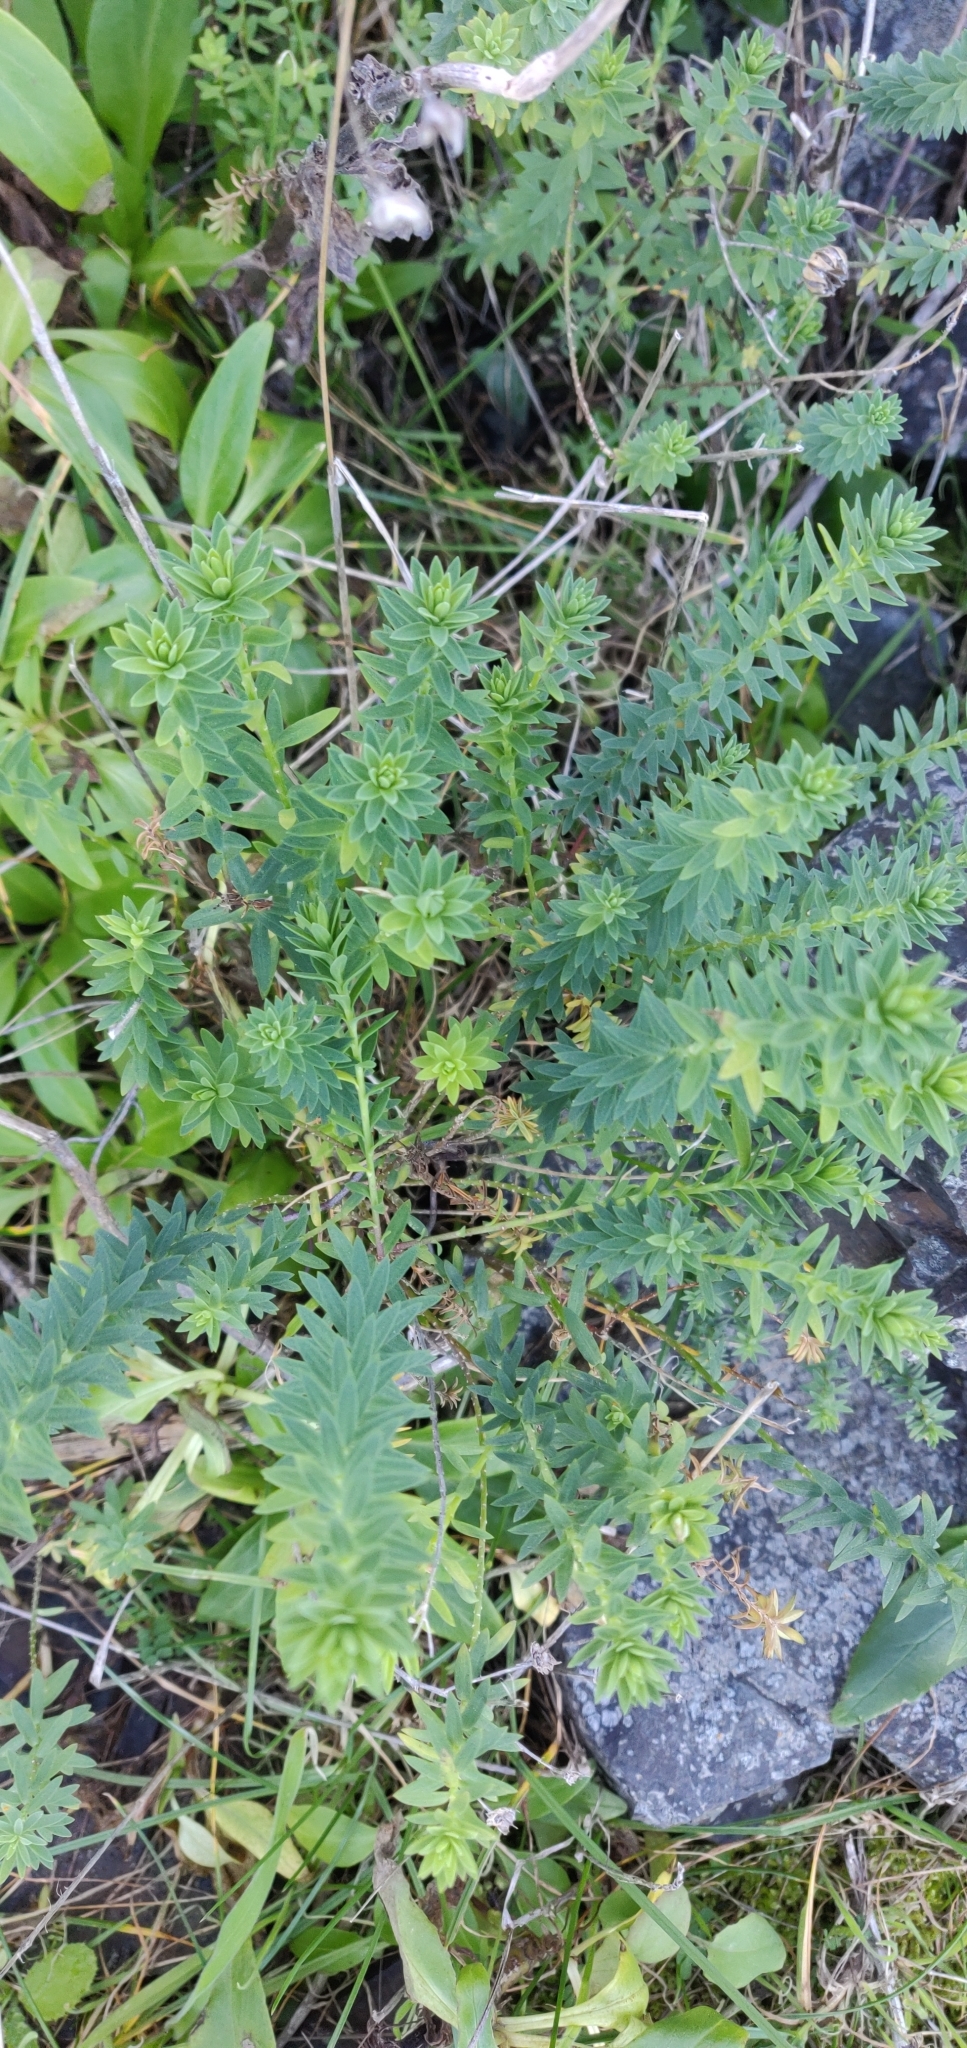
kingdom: Plantae
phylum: Tracheophyta
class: Magnoliopsida
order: Malpighiales
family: Linaceae
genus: Linum
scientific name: Linum monogynum
